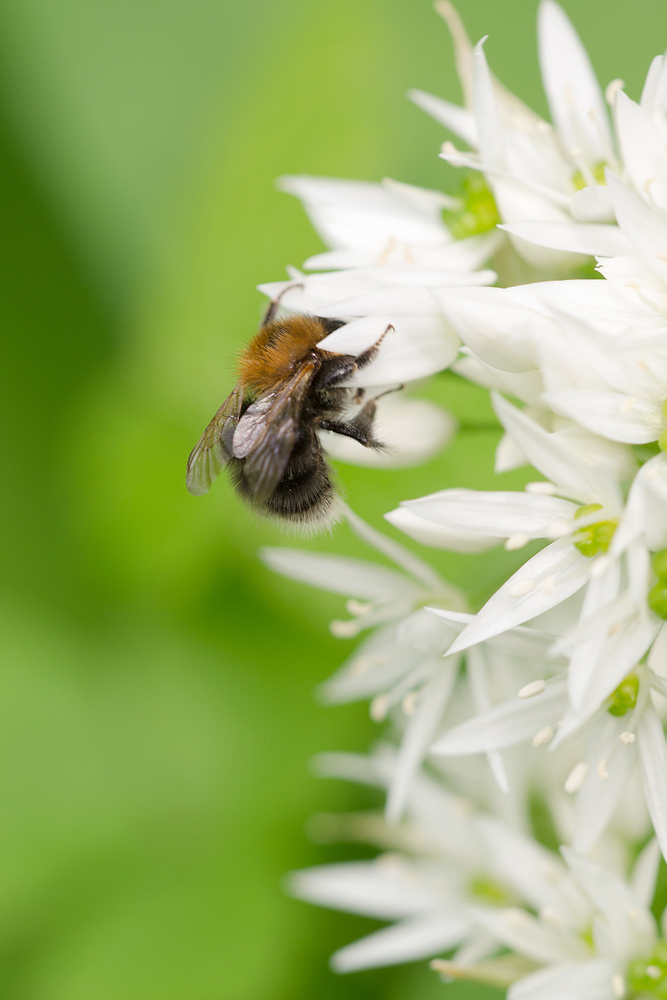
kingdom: Animalia
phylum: Arthropoda
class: Insecta
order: Hymenoptera
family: Apidae
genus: Bombus
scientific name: Bombus hypnorum
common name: New garden bumblebee
